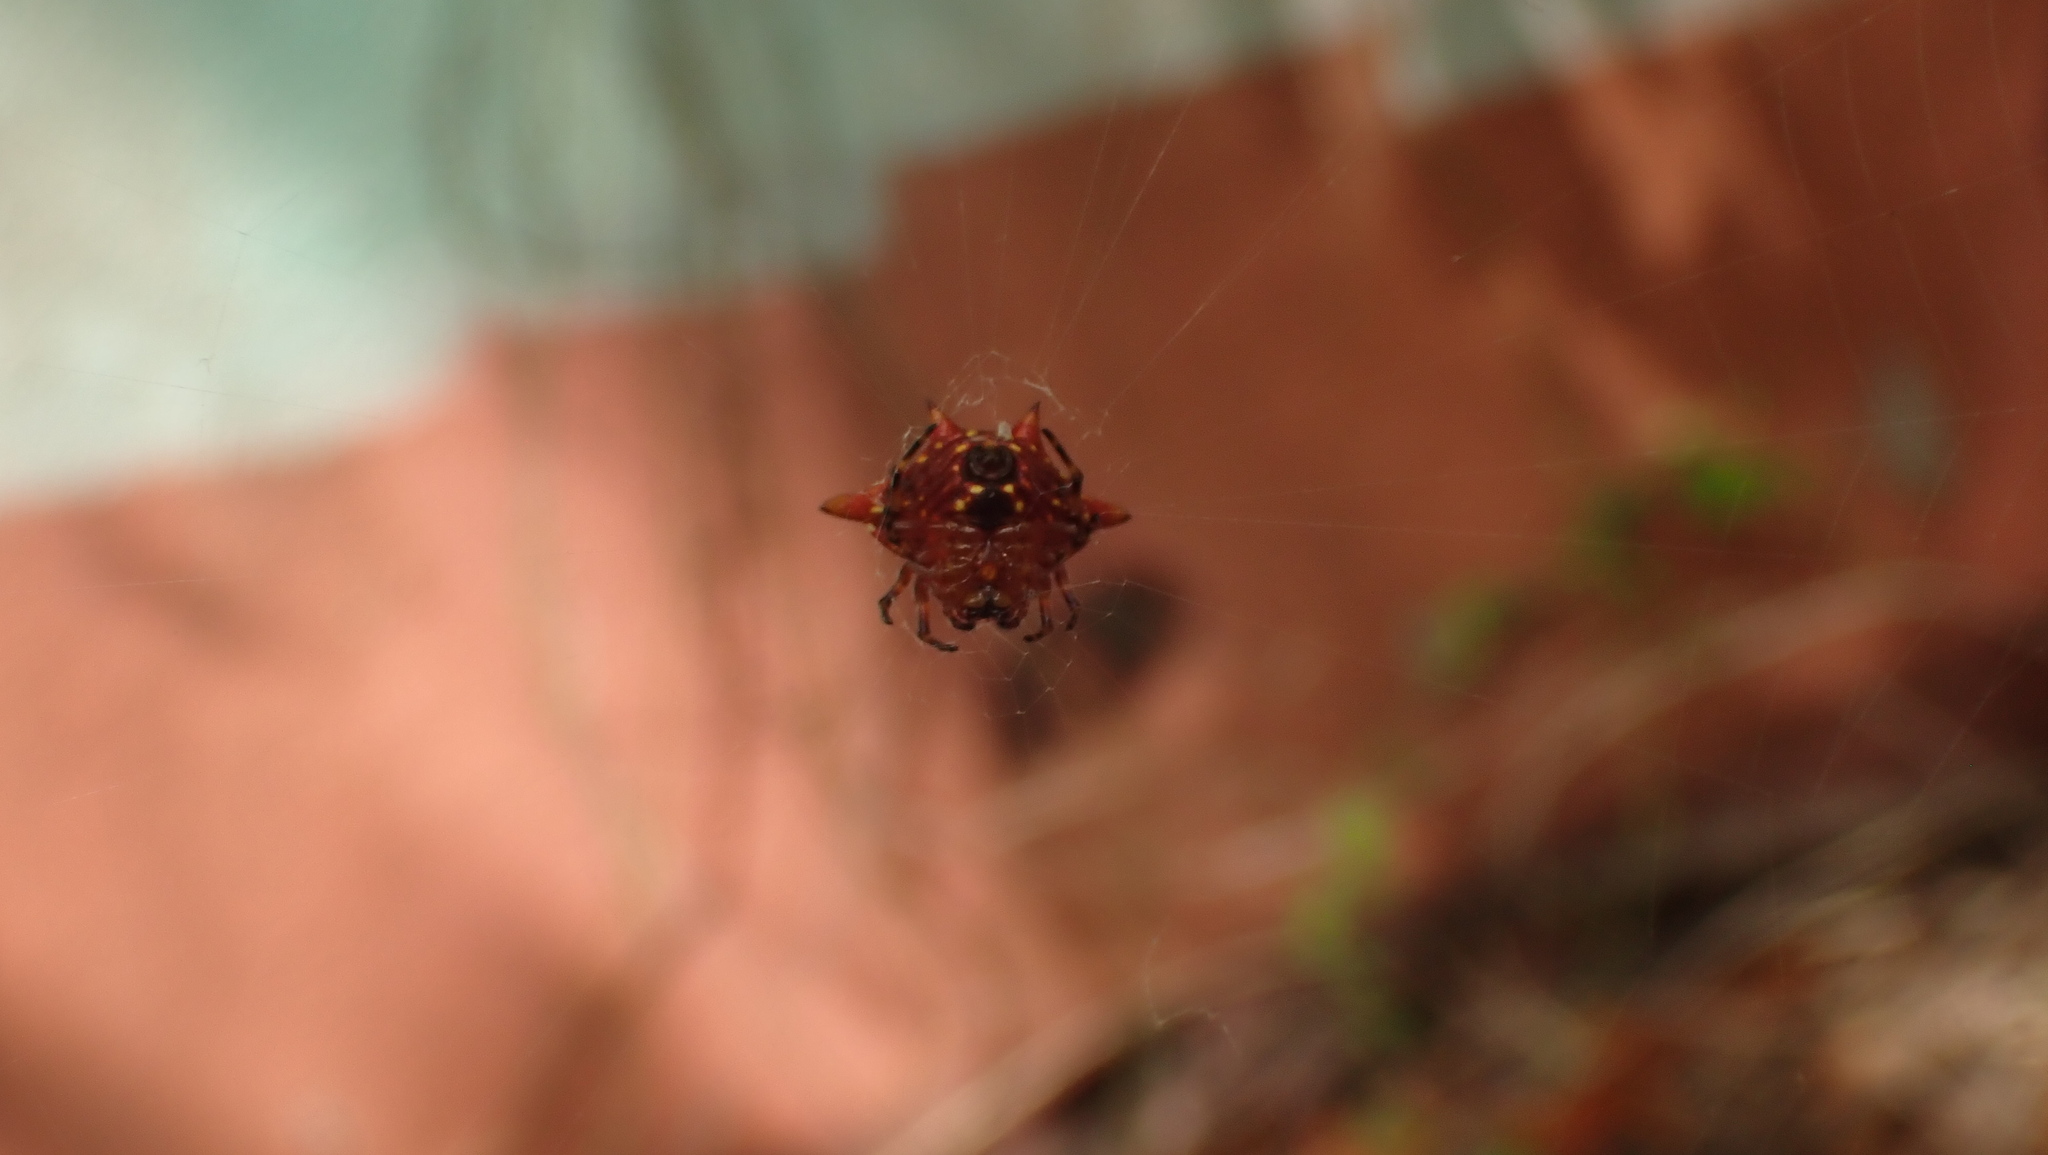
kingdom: Animalia
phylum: Arthropoda
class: Arachnida
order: Araneae
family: Araneidae
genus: Gasteracantha
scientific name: Gasteracantha cancriformis
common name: Orb weavers
